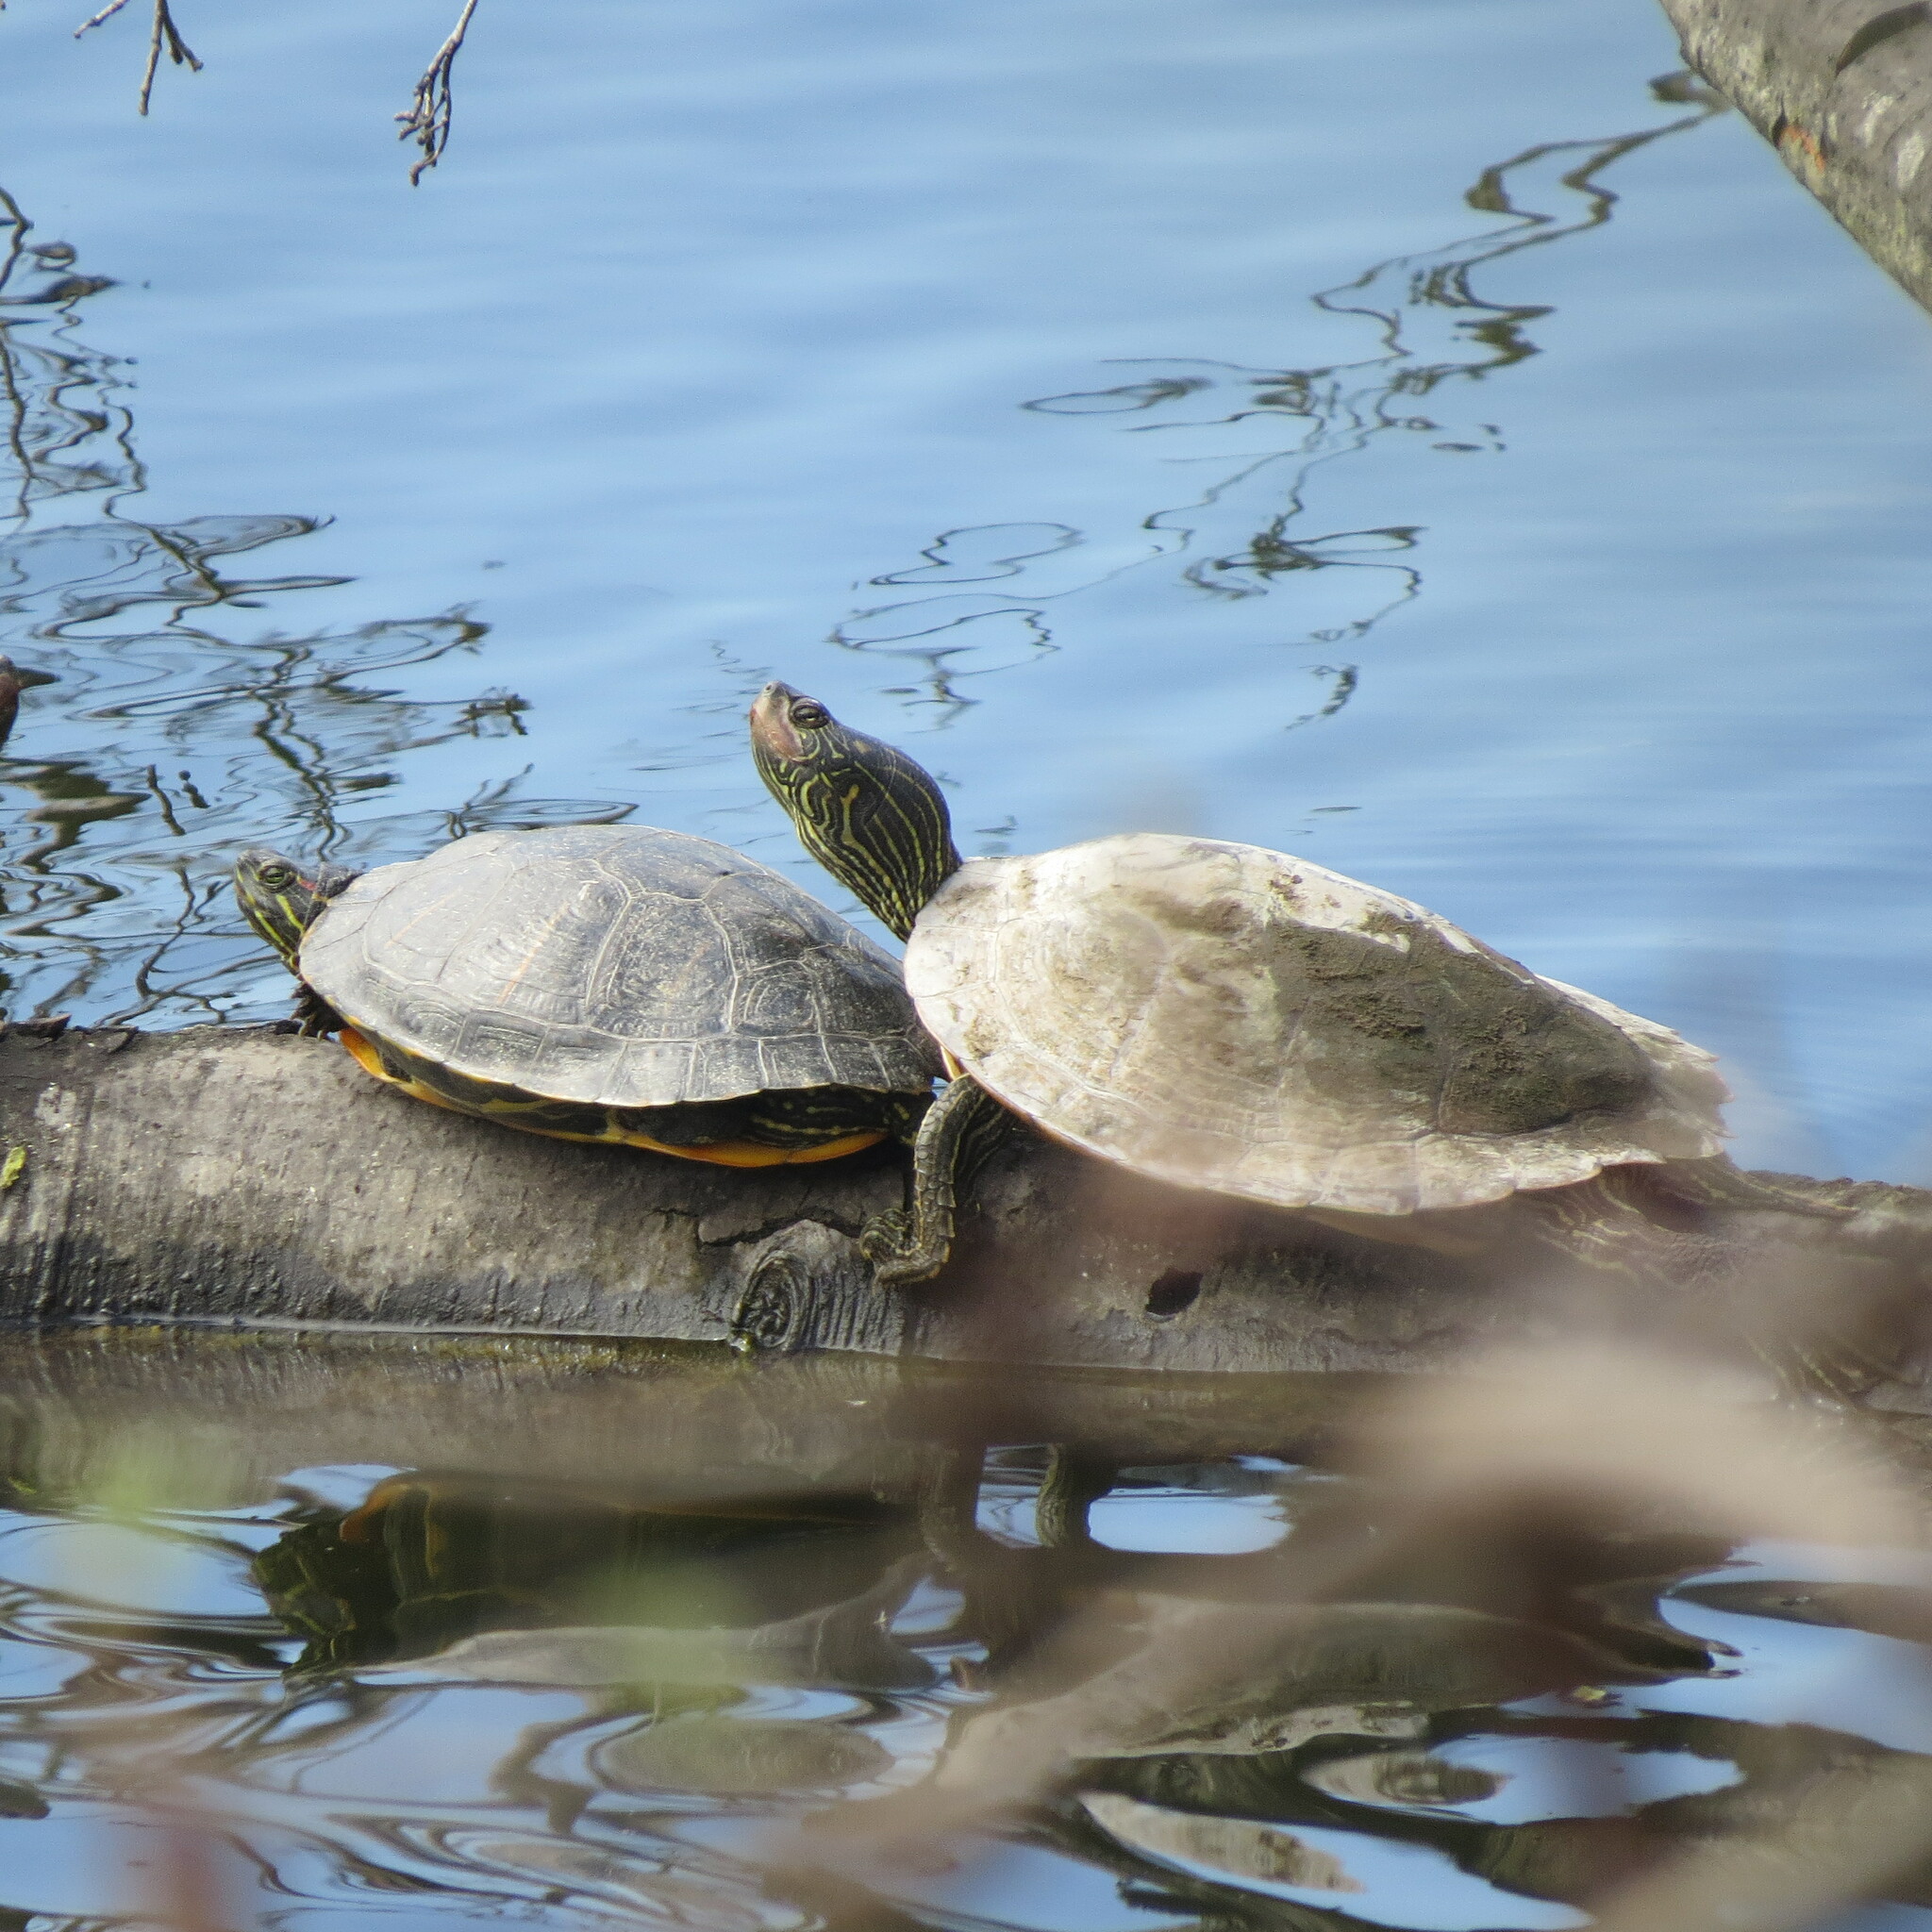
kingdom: Animalia
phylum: Chordata
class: Testudines
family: Emydidae
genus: Graptemys
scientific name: Graptemys geographica
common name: Common map turtle
